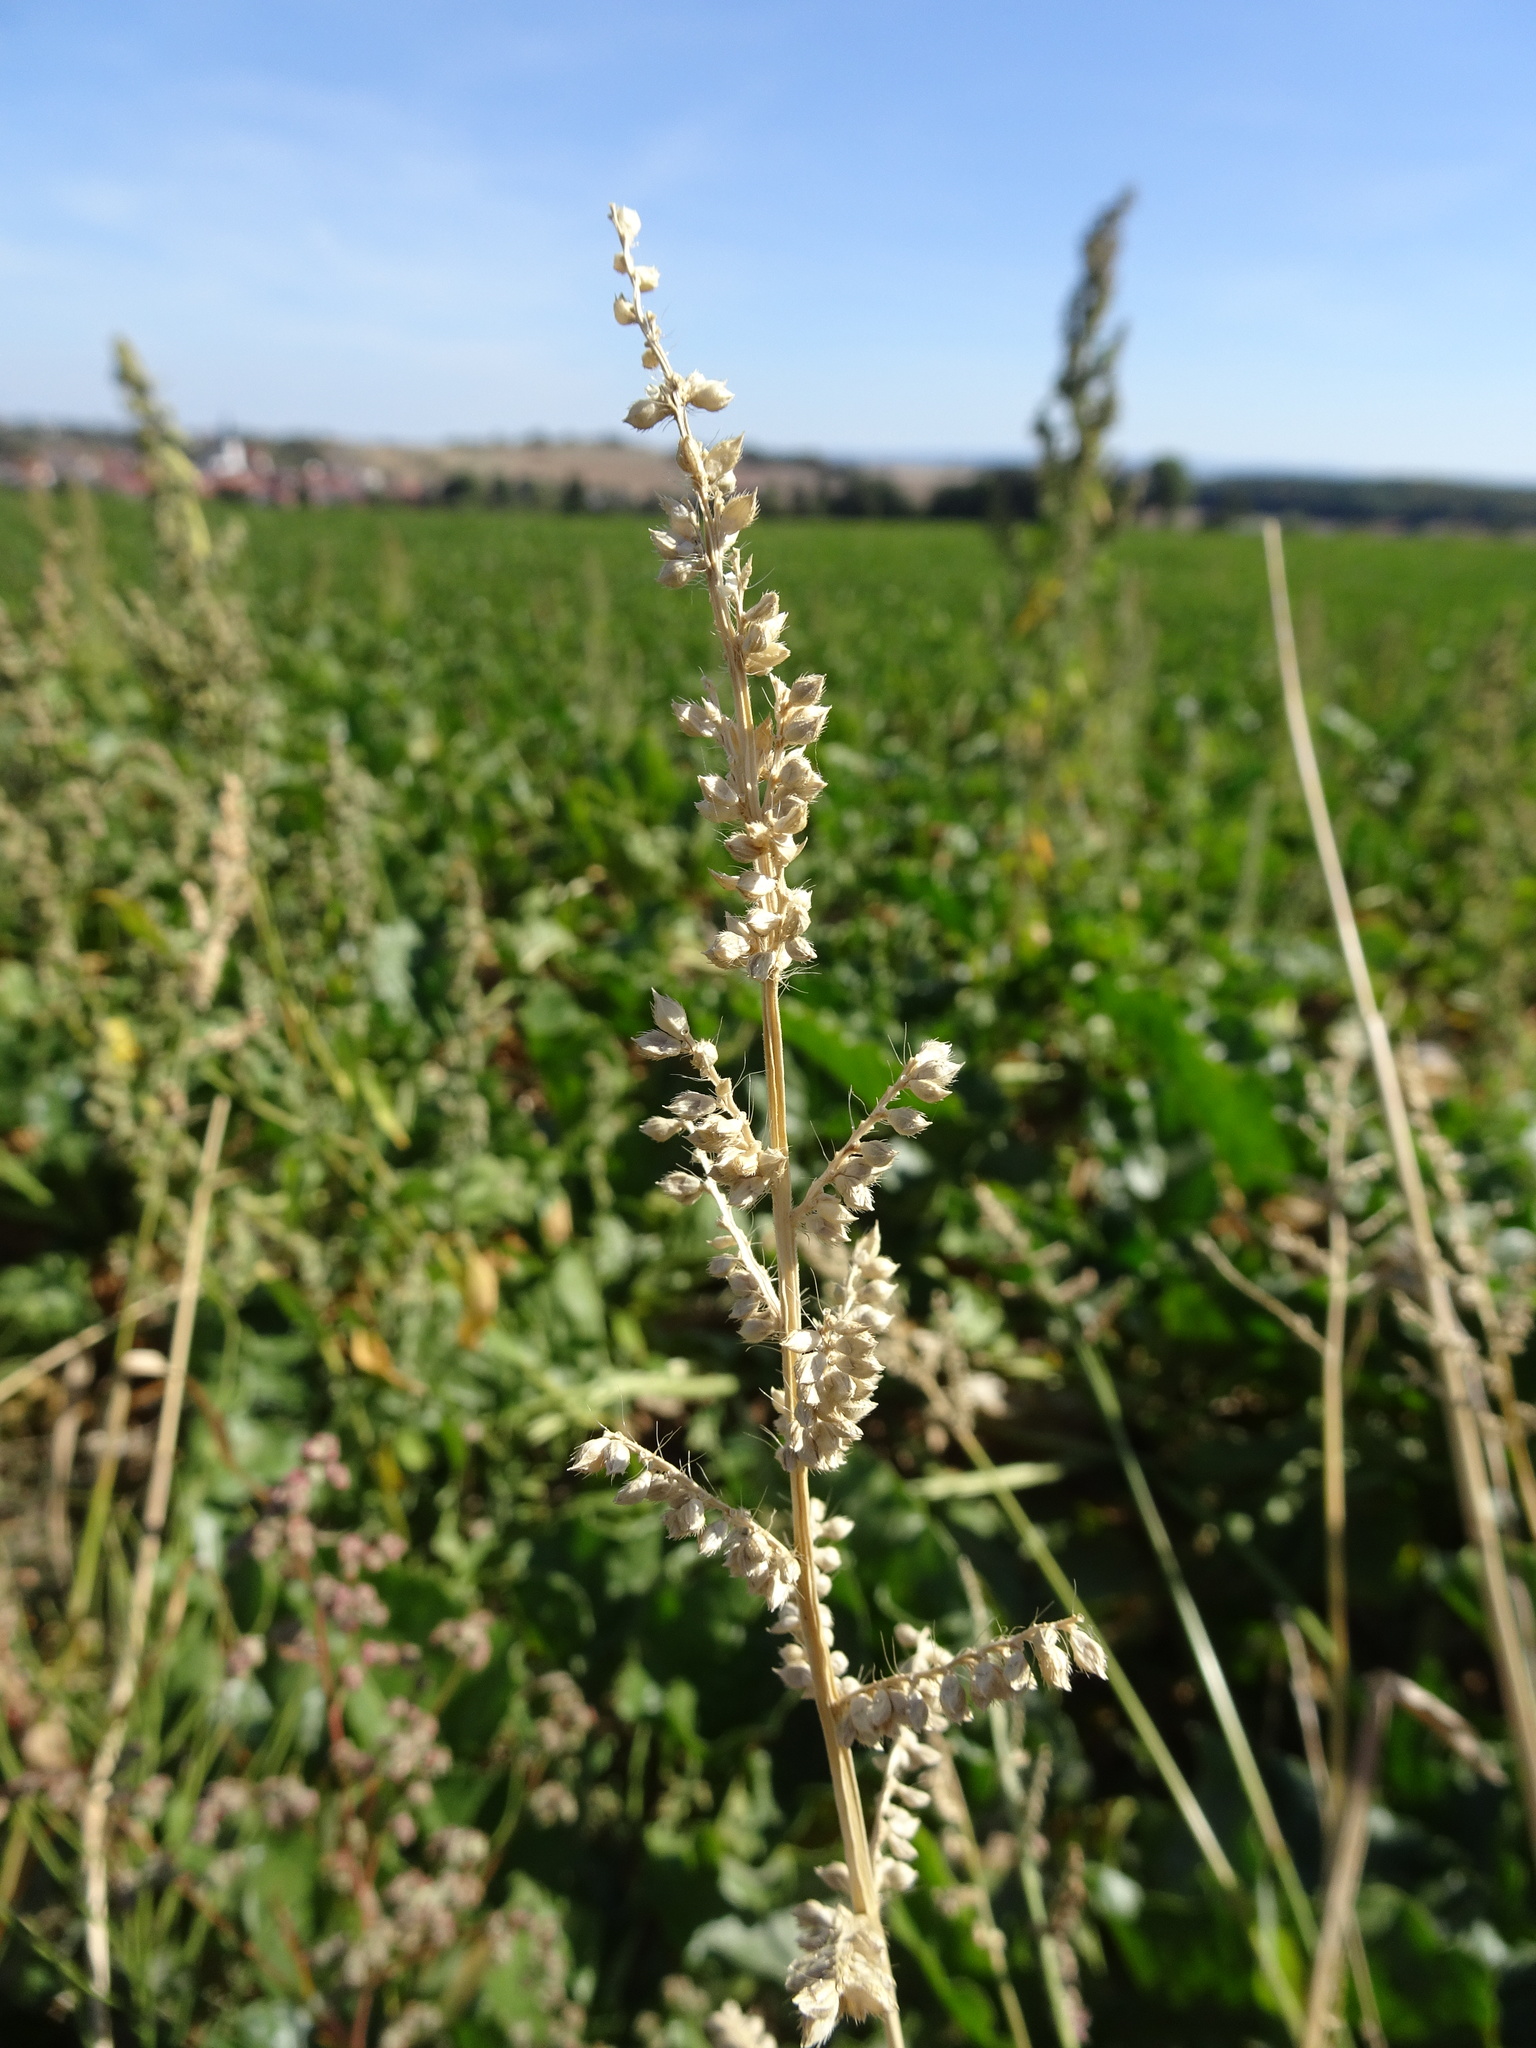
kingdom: Plantae
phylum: Tracheophyta
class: Liliopsida
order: Poales
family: Poaceae
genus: Echinochloa
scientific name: Echinochloa crus-galli
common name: Cockspur
